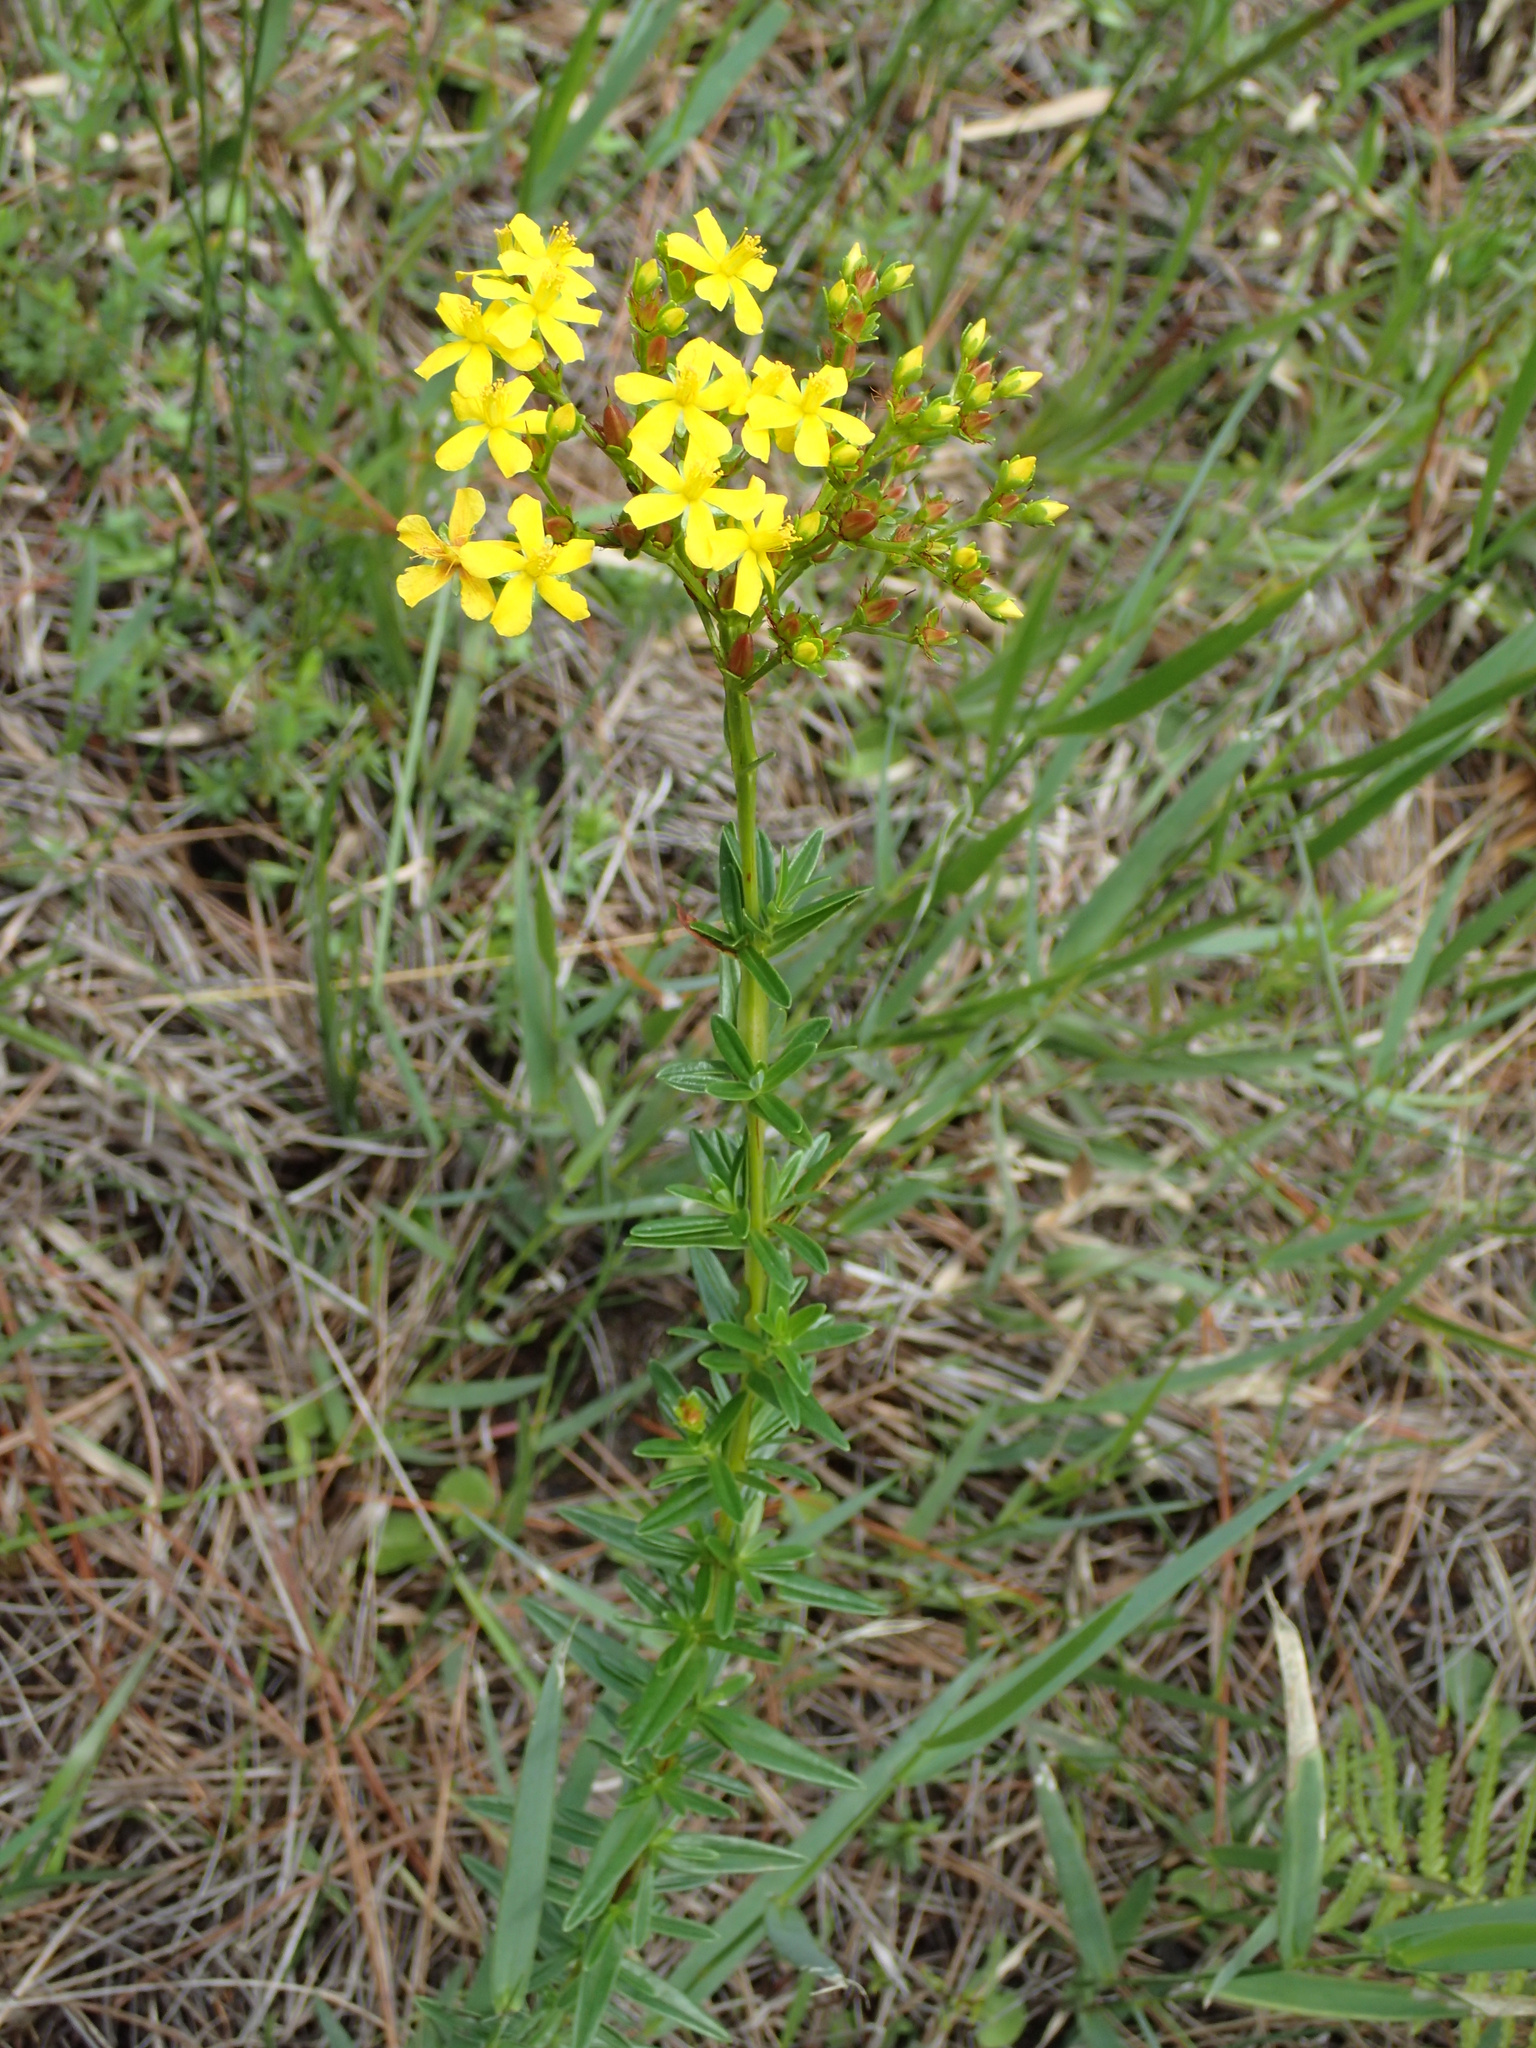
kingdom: Plantae
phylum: Tracheophyta
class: Magnoliopsida
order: Malpighiales
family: Hypericaceae
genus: Hypericum
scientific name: Hypericum cistifolium
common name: Round-pod st. john's-wort
